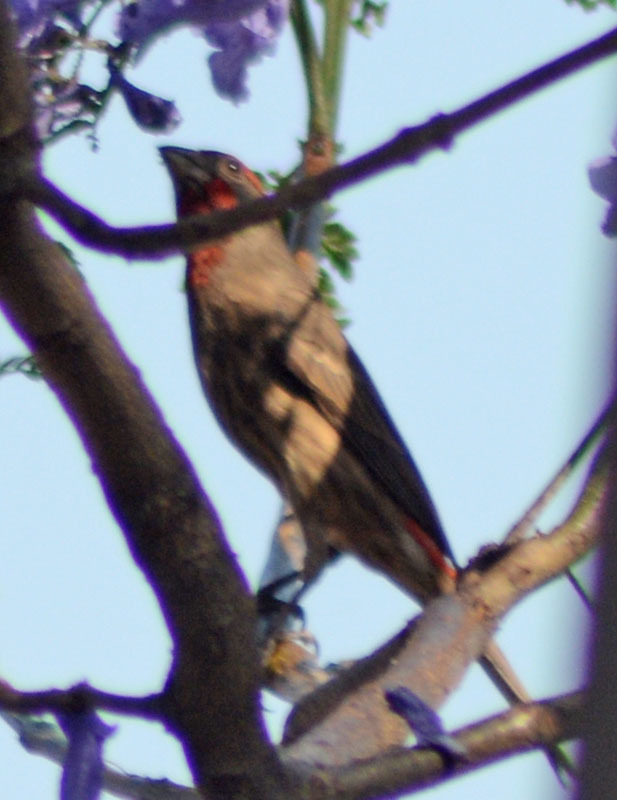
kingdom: Animalia
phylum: Chordata
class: Aves
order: Passeriformes
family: Fringillidae
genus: Haemorhous
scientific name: Haemorhous mexicanus
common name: House finch
